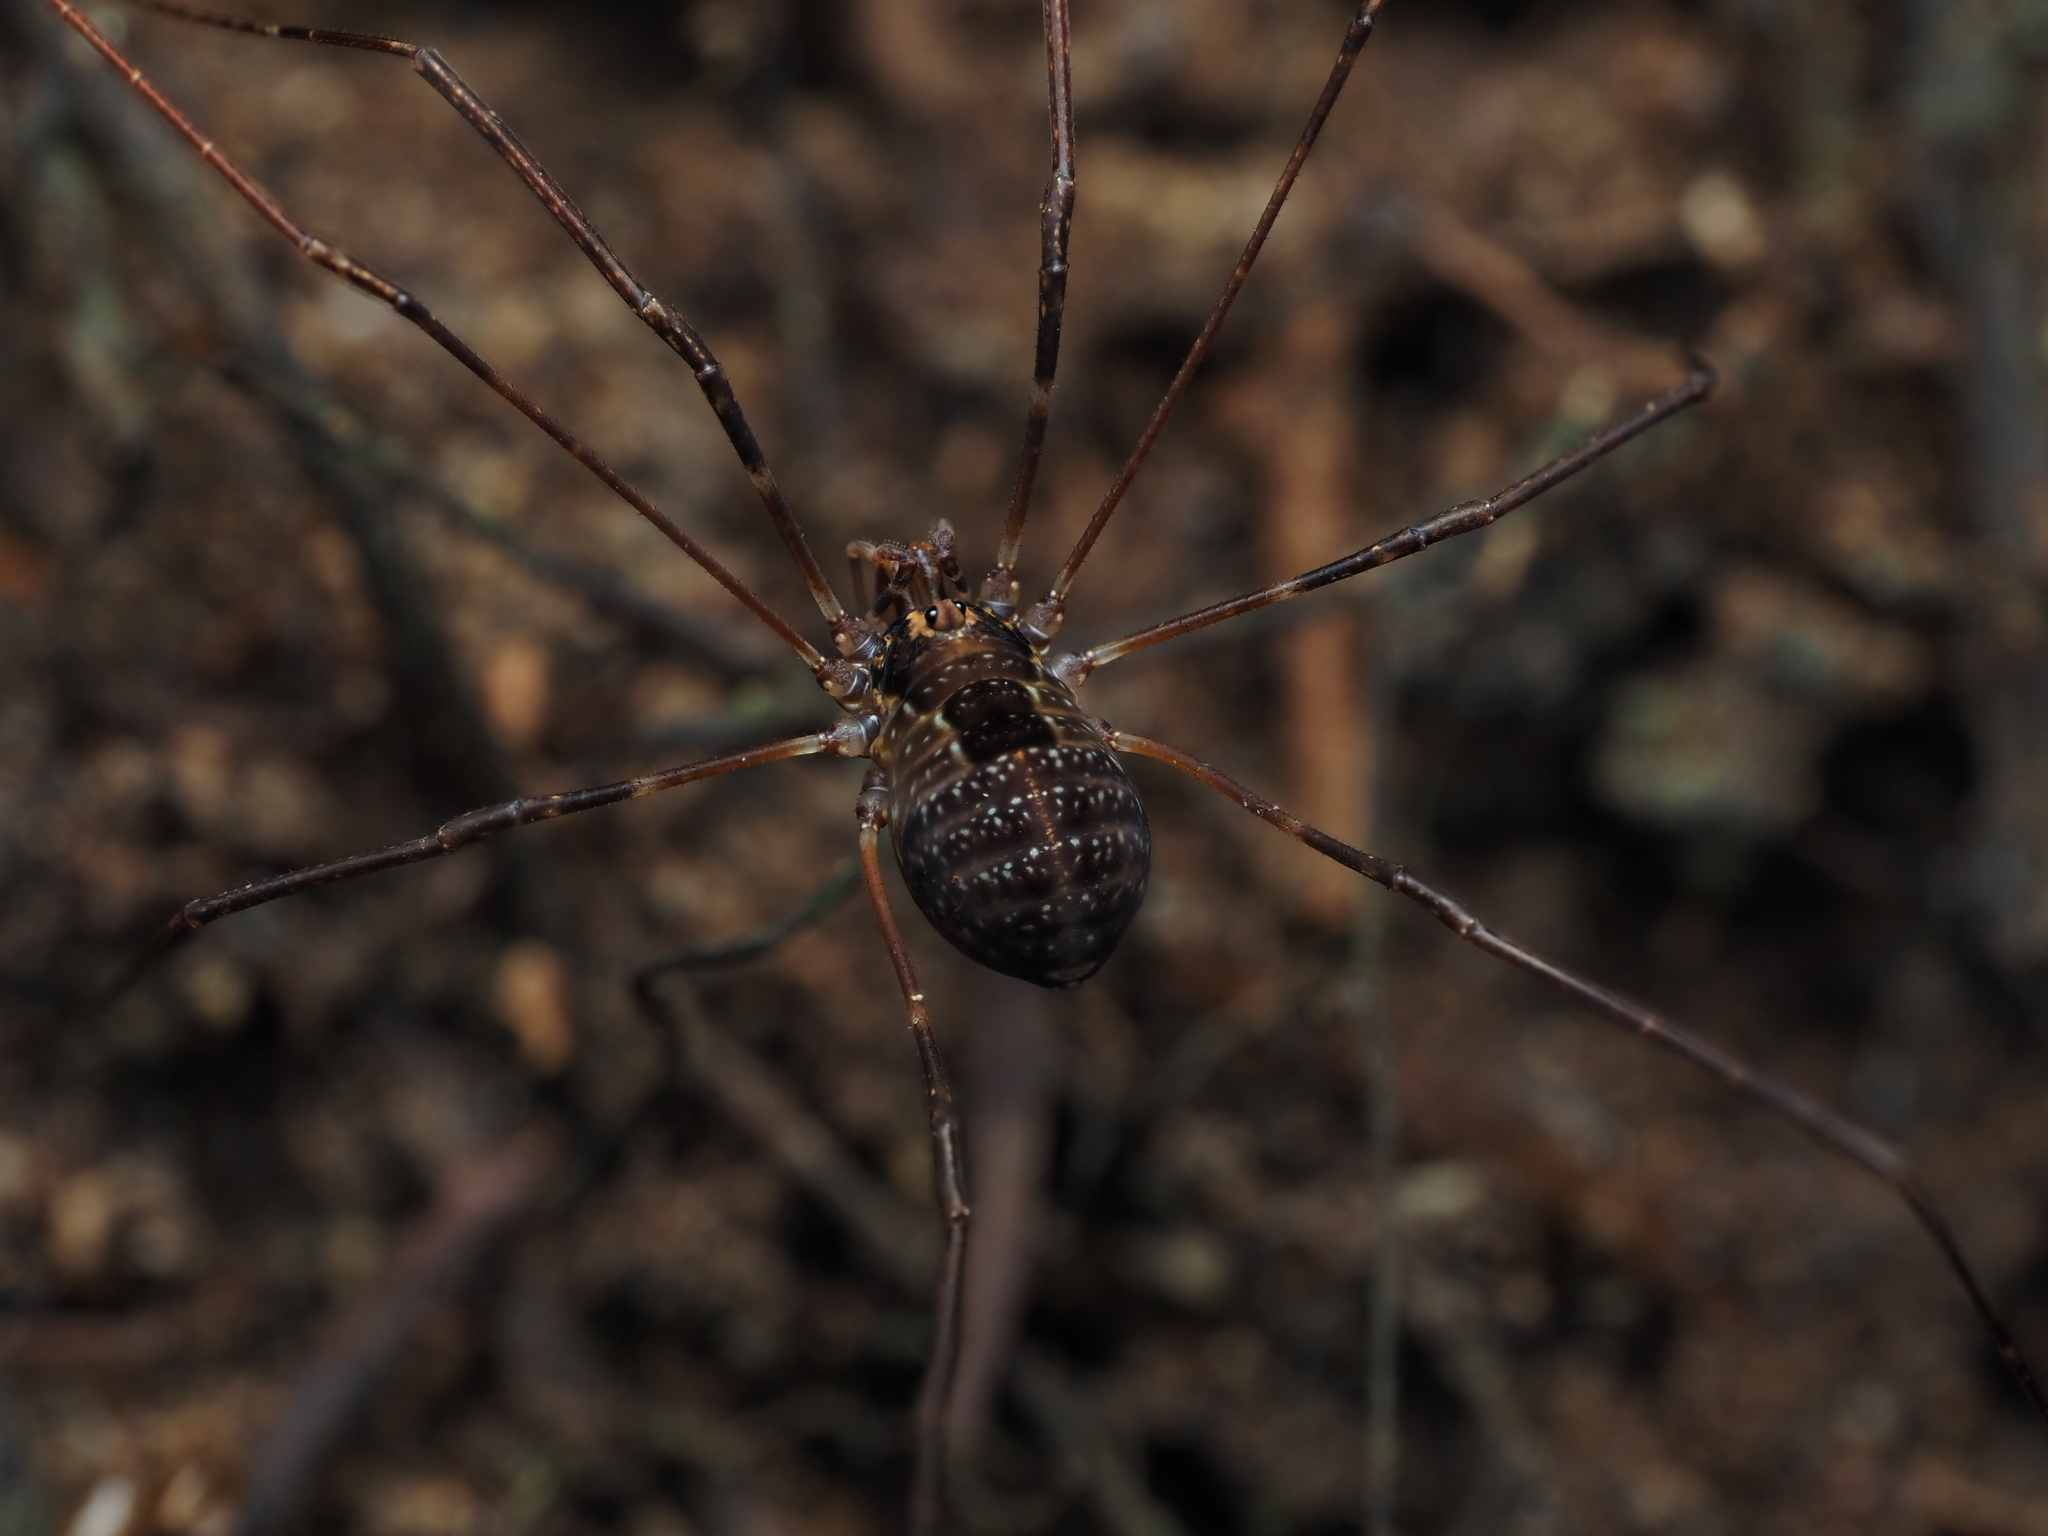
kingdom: Animalia
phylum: Arthropoda
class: Arachnida
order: Opiliones
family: Neopilionidae
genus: Forsteropsalis
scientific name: Forsteropsalis pureora
